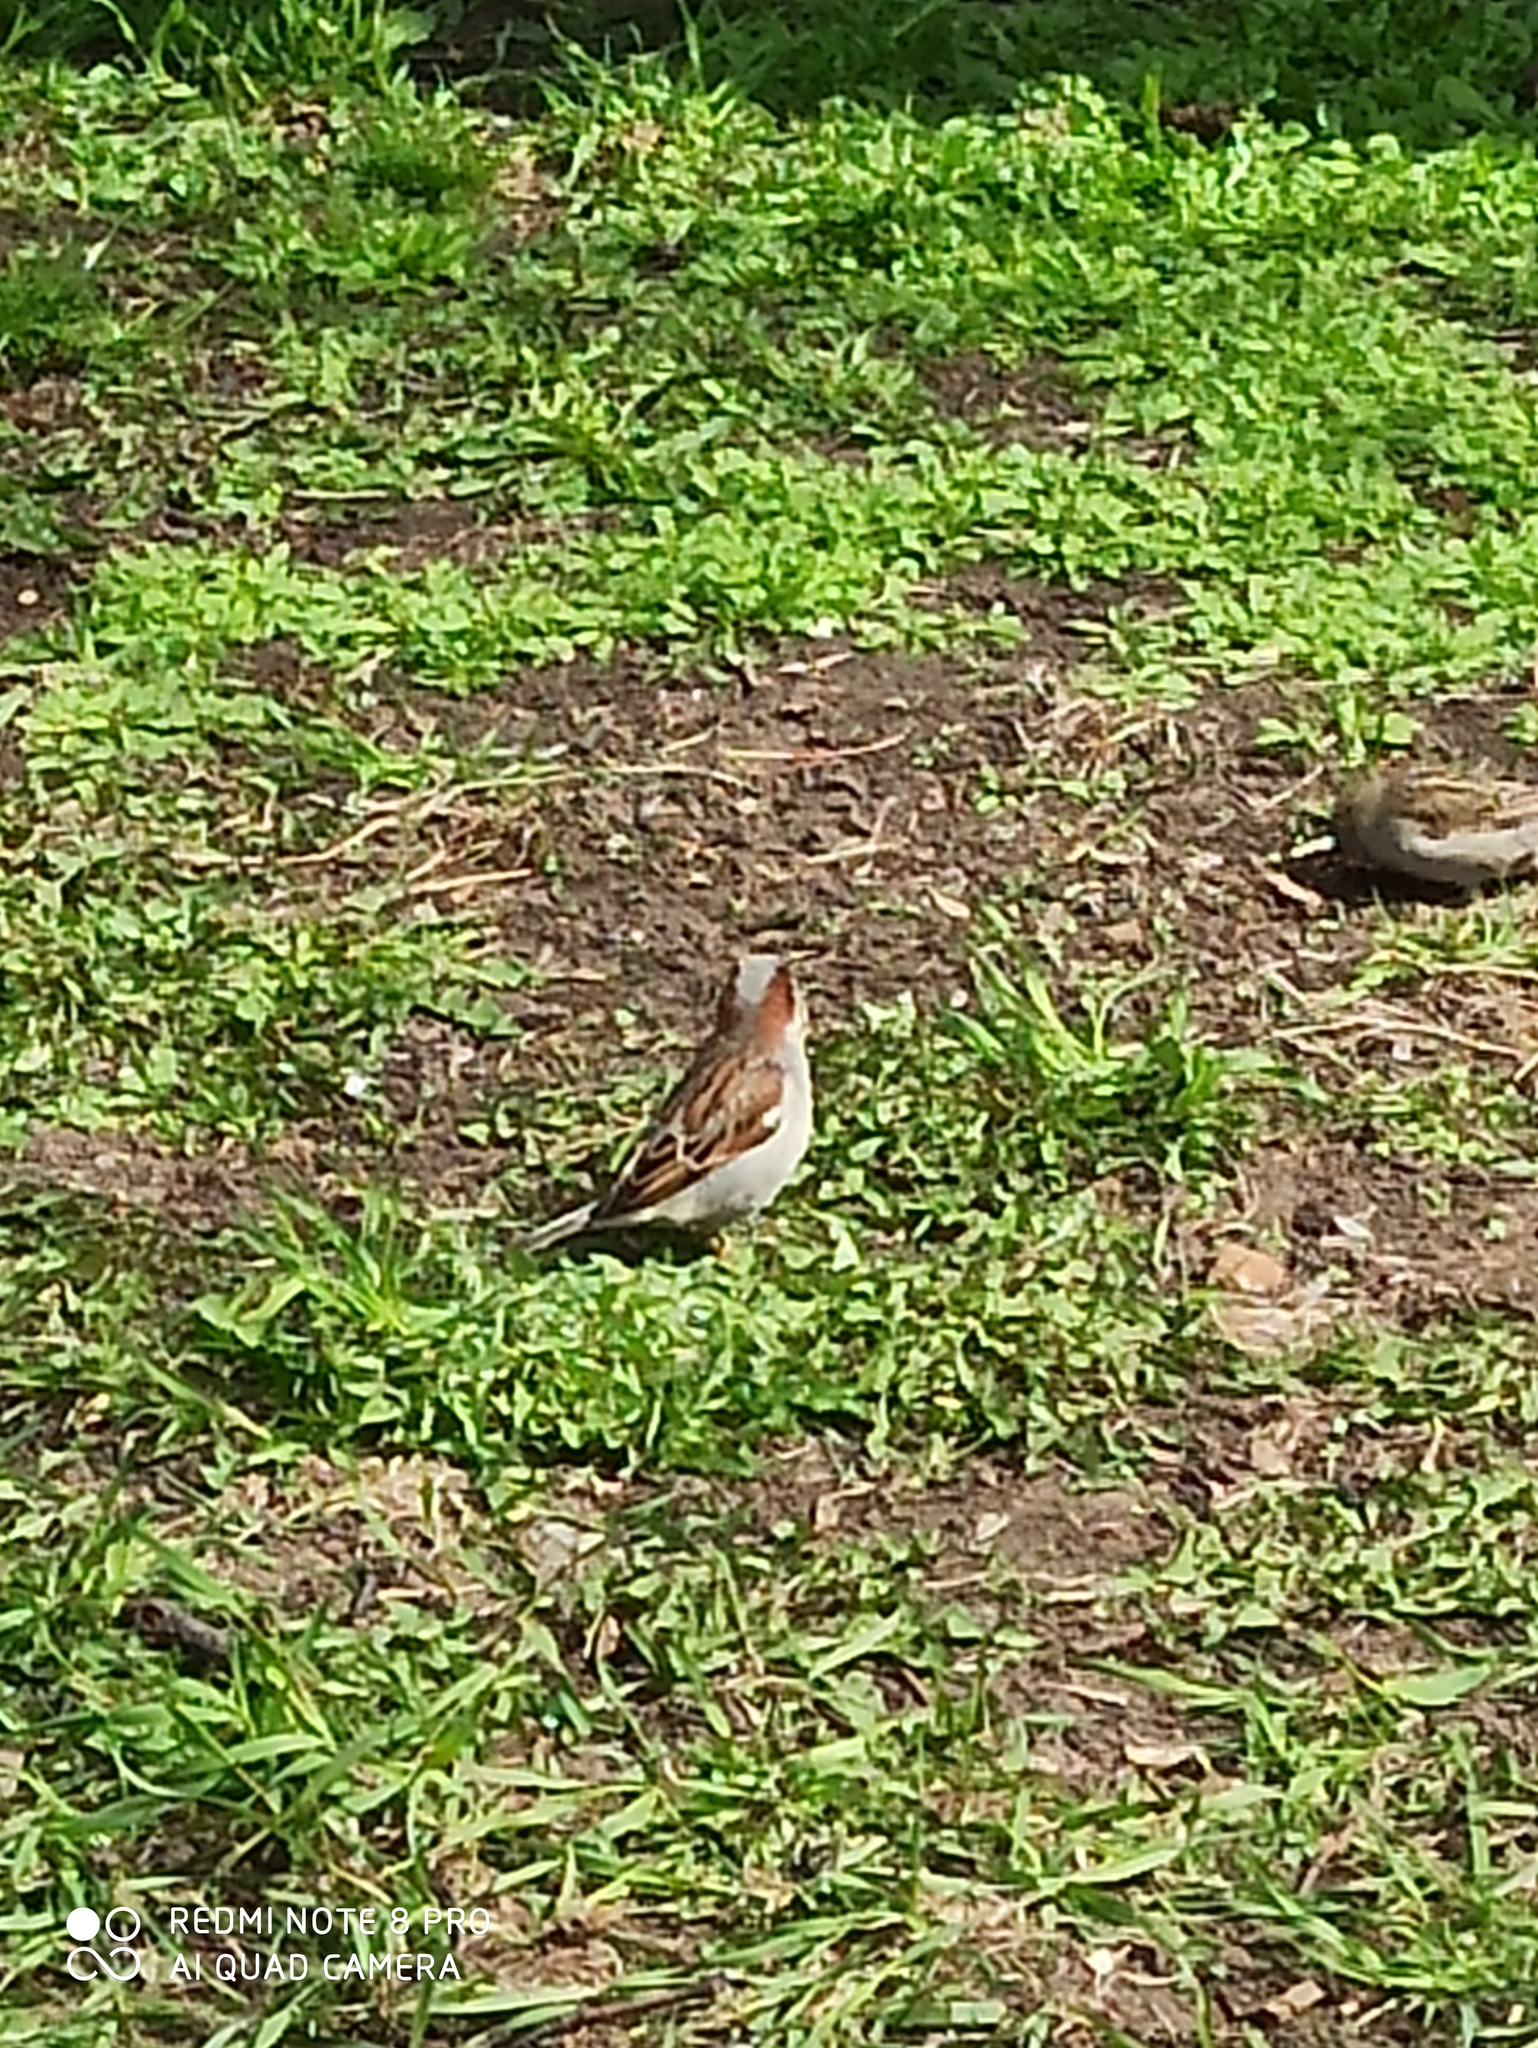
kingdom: Animalia
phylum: Chordata
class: Aves
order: Passeriformes
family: Passeridae
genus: Passer
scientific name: Passer domesticus
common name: House sparrow
